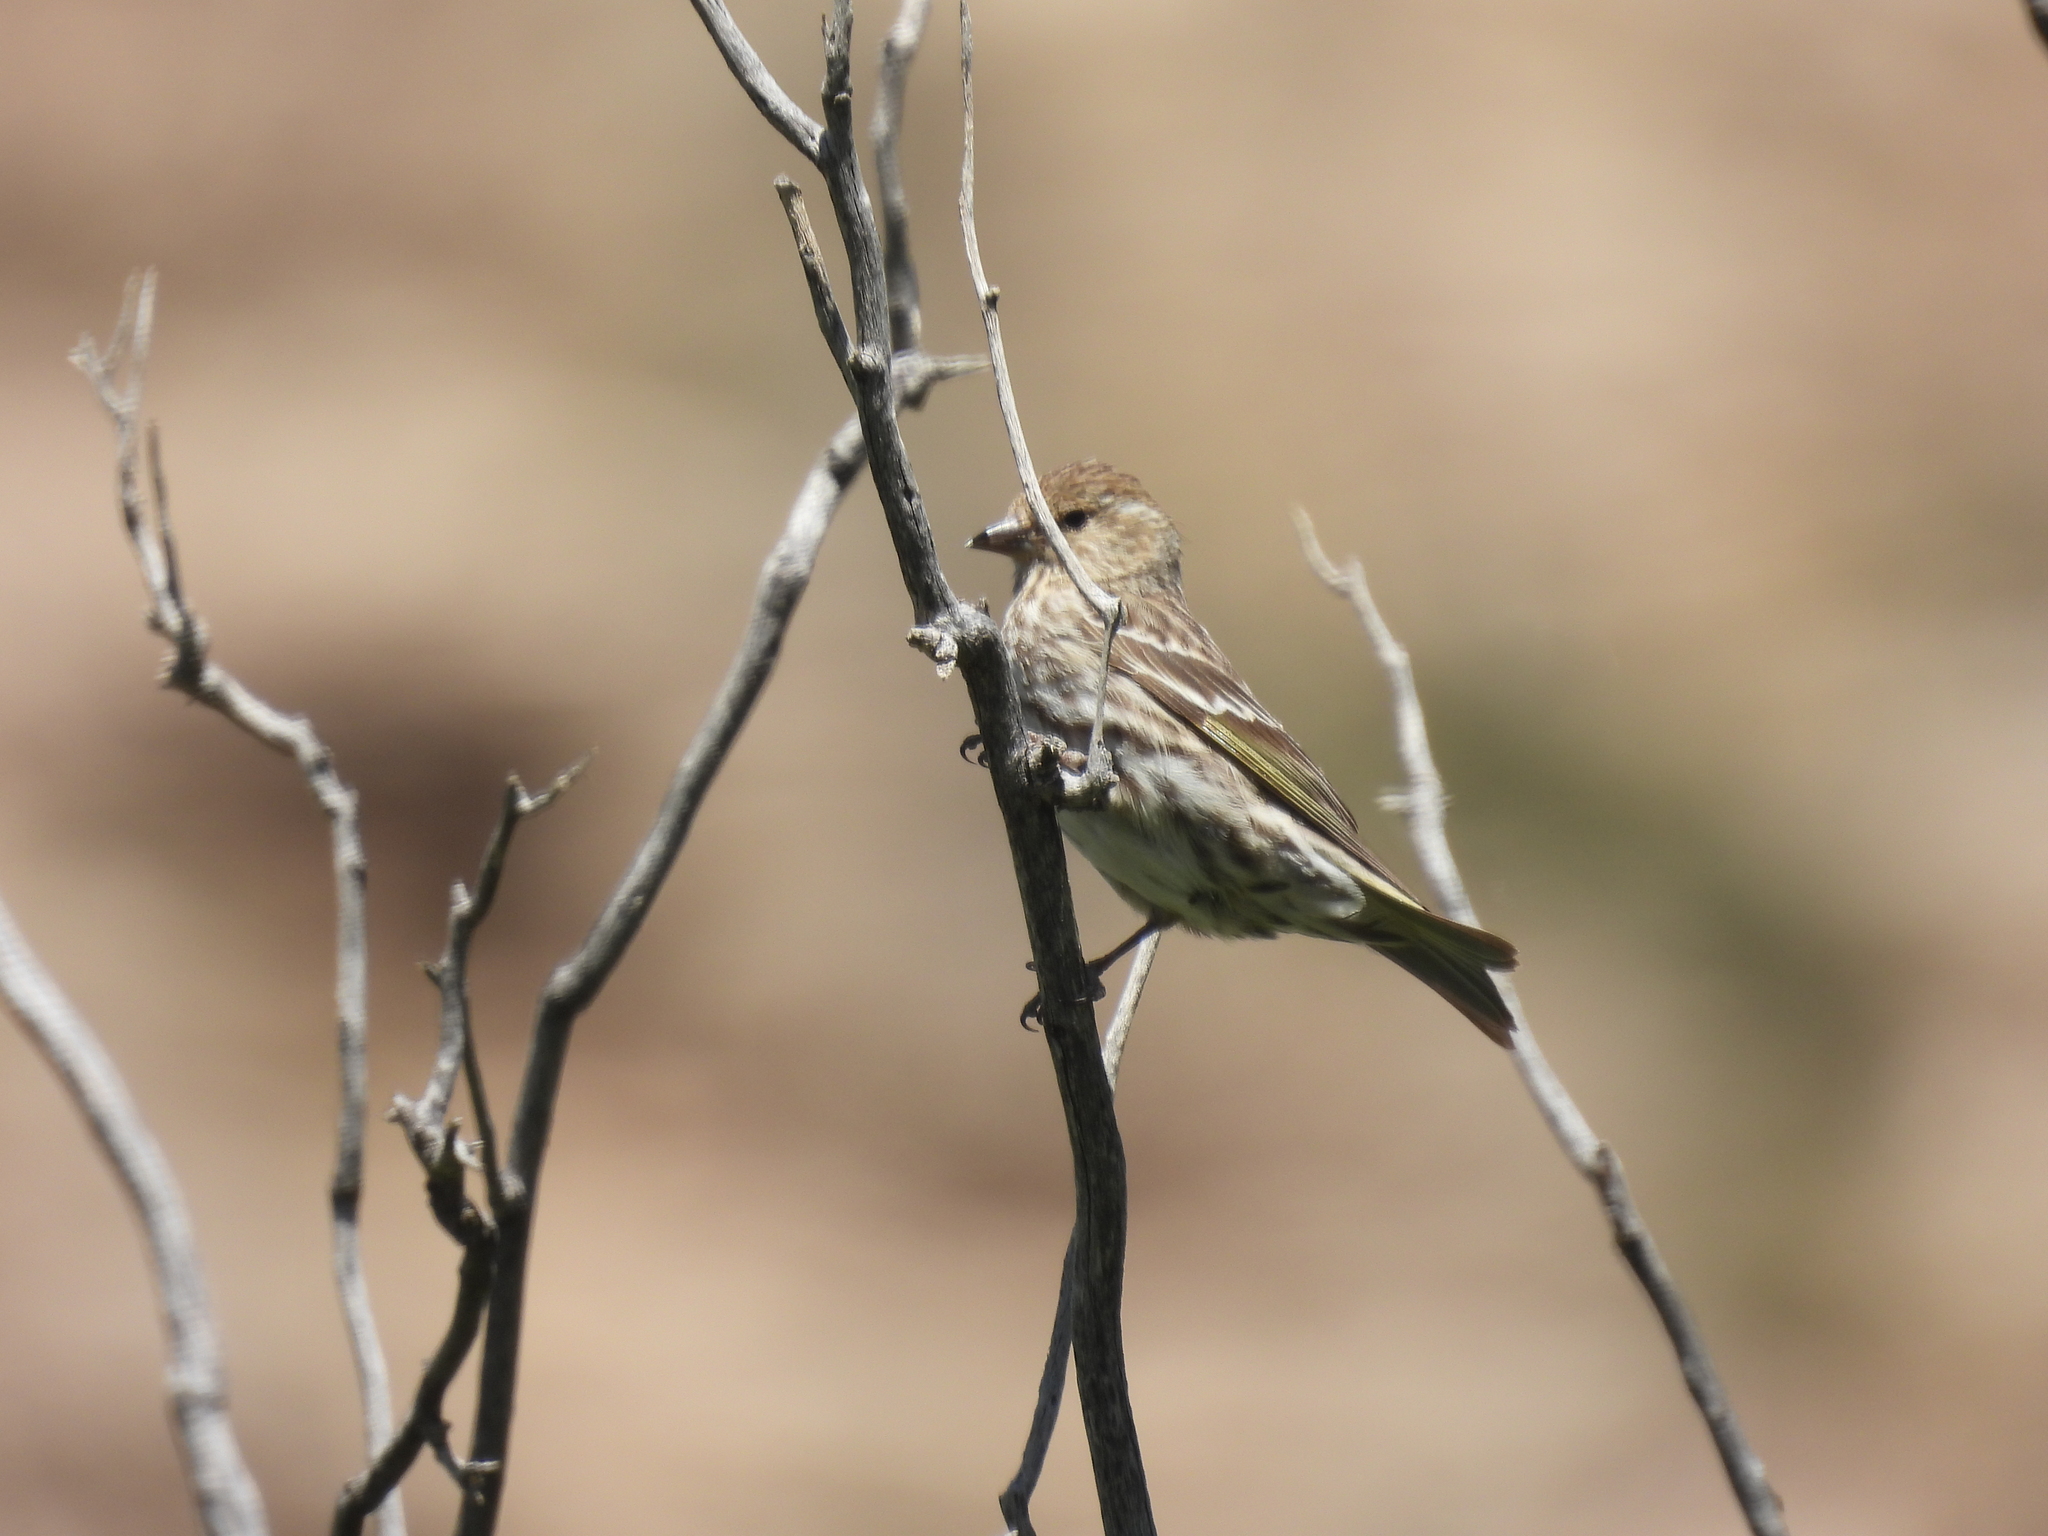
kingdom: Animalia
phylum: Chordata
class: Aves
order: Passeriformes
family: Fringillidae
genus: Spinus
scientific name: Spinus pinus
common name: Pine siskin
